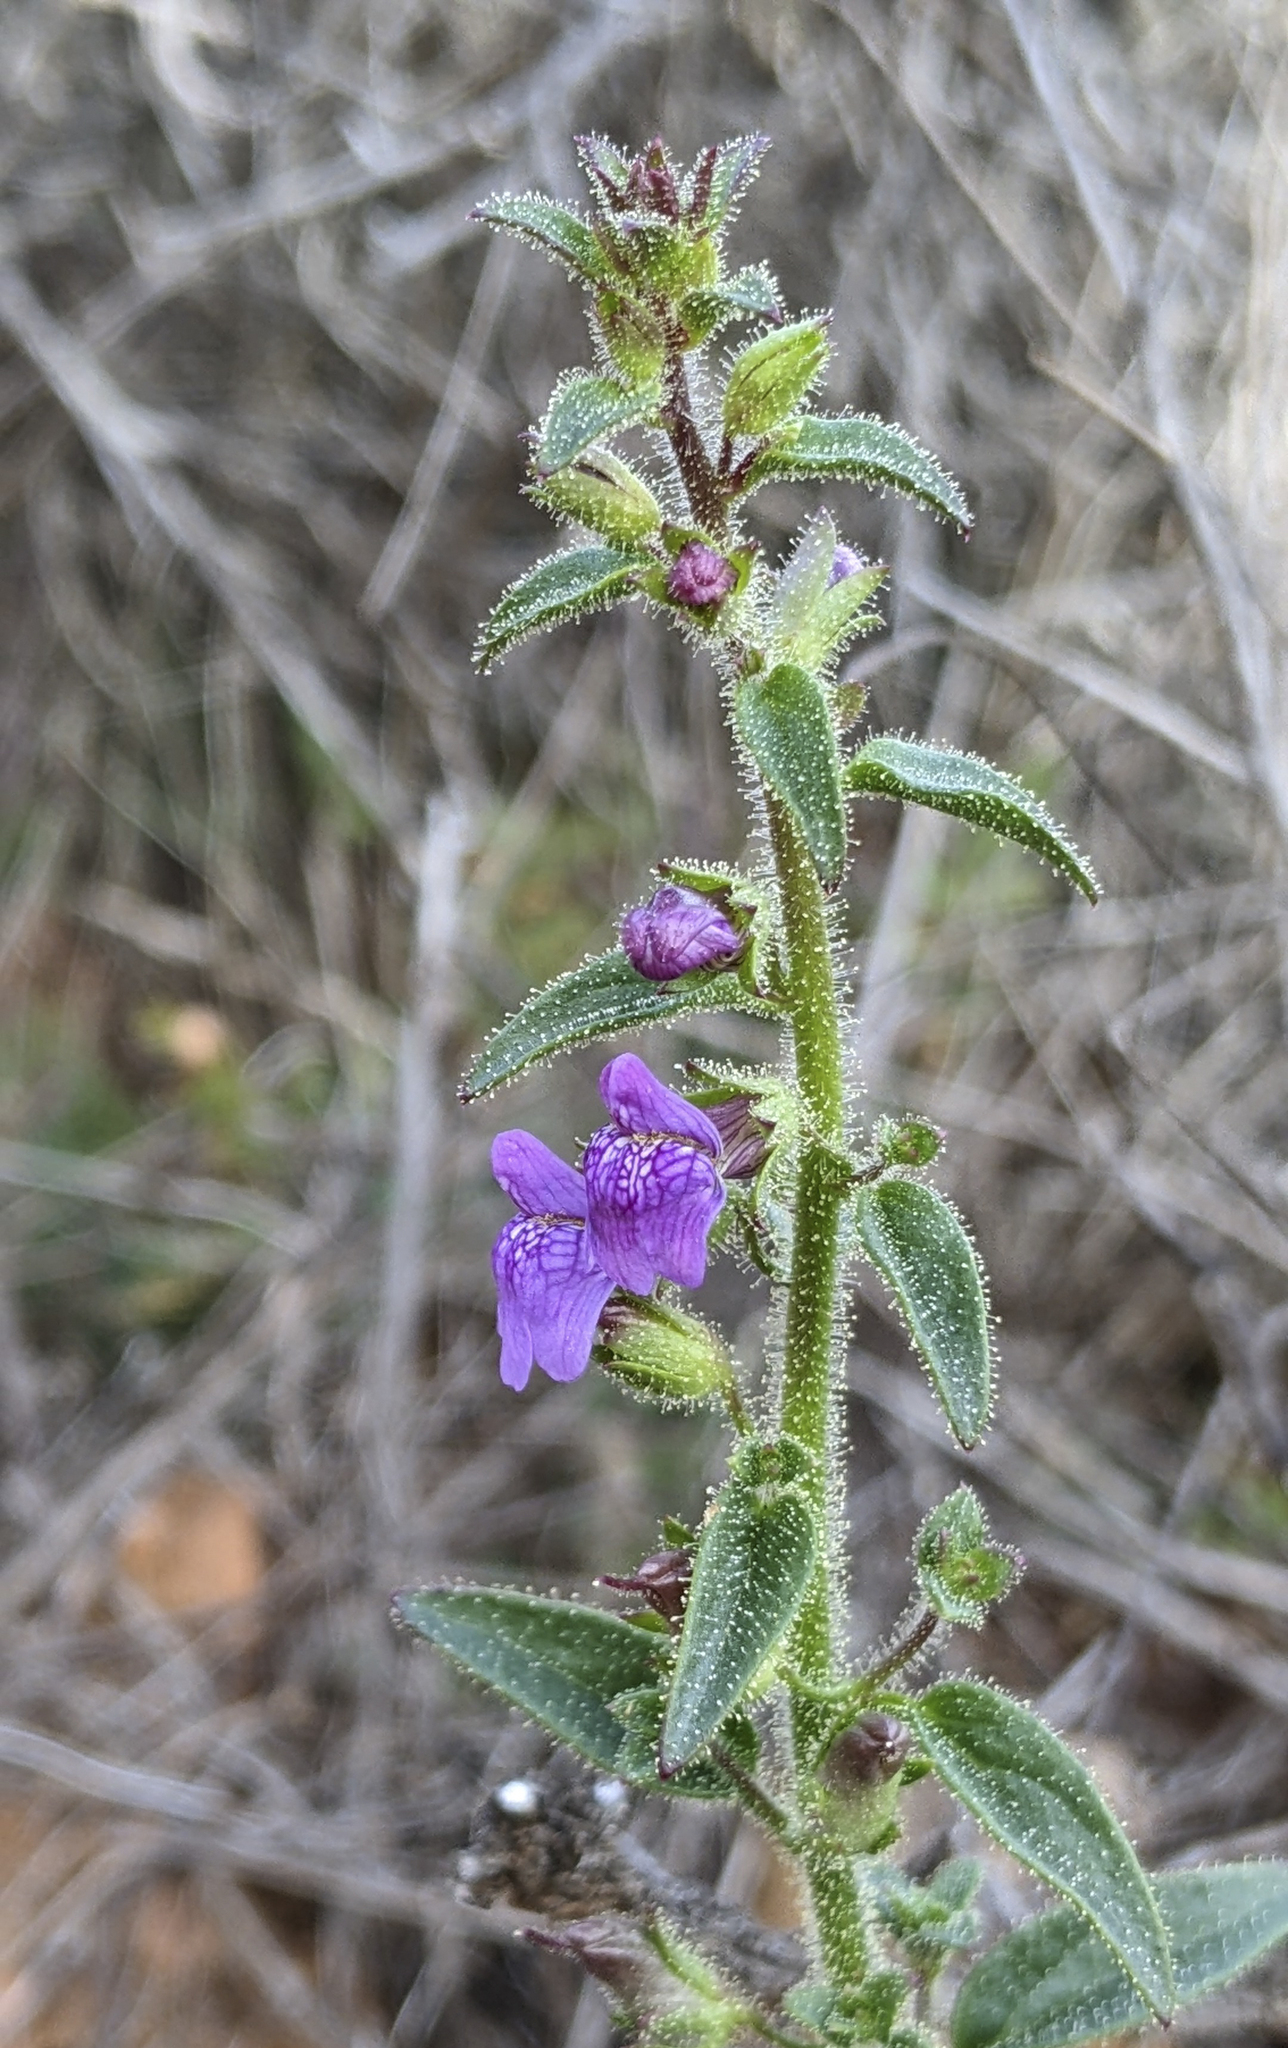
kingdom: Plantae
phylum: Tracheophyta
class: Magnoliopsida
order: Lamiales
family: Plantaginaceae
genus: Sairocarpus
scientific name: Sairocarpus nuttallianus
